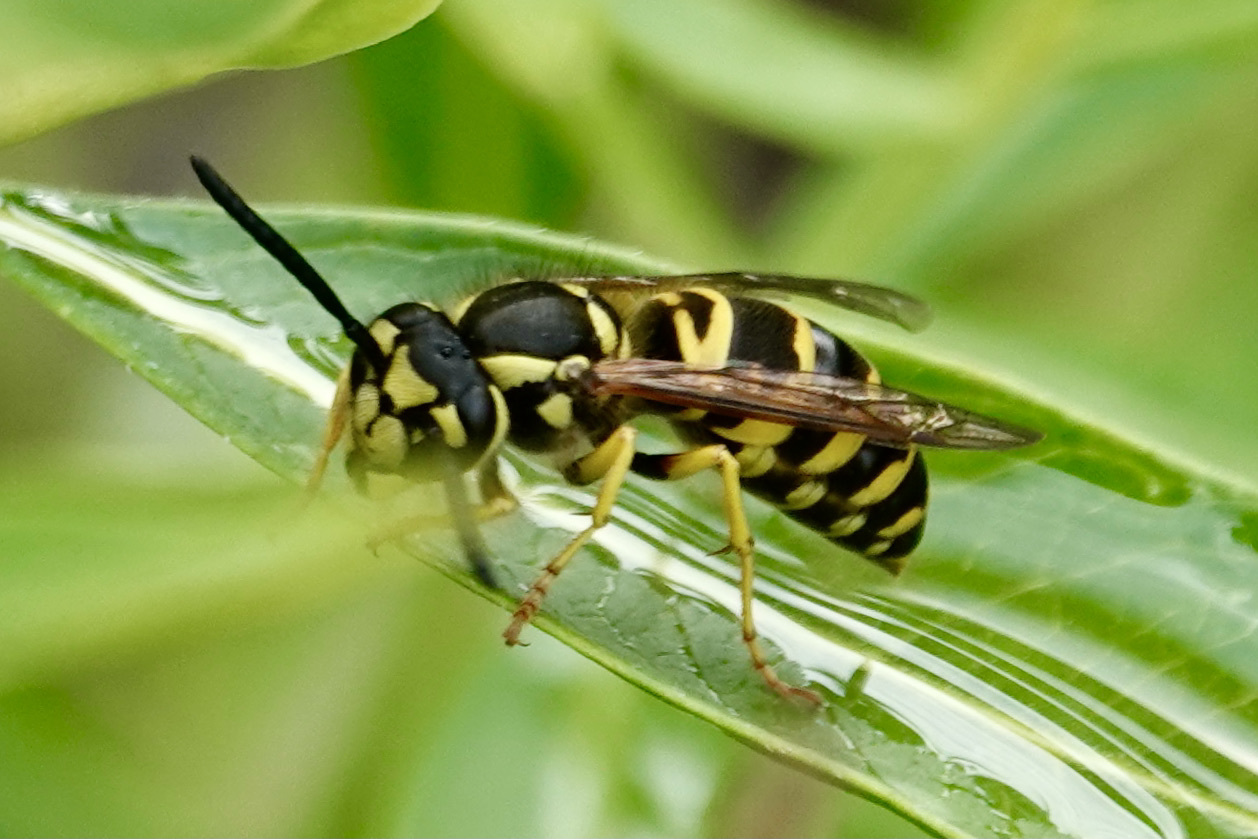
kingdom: Animalia
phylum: Arthropoda
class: Insecta
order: Hymenoptera
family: Vespidae
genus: Vespula
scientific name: Vespula maculifrons
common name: Eastern yellowjacket
